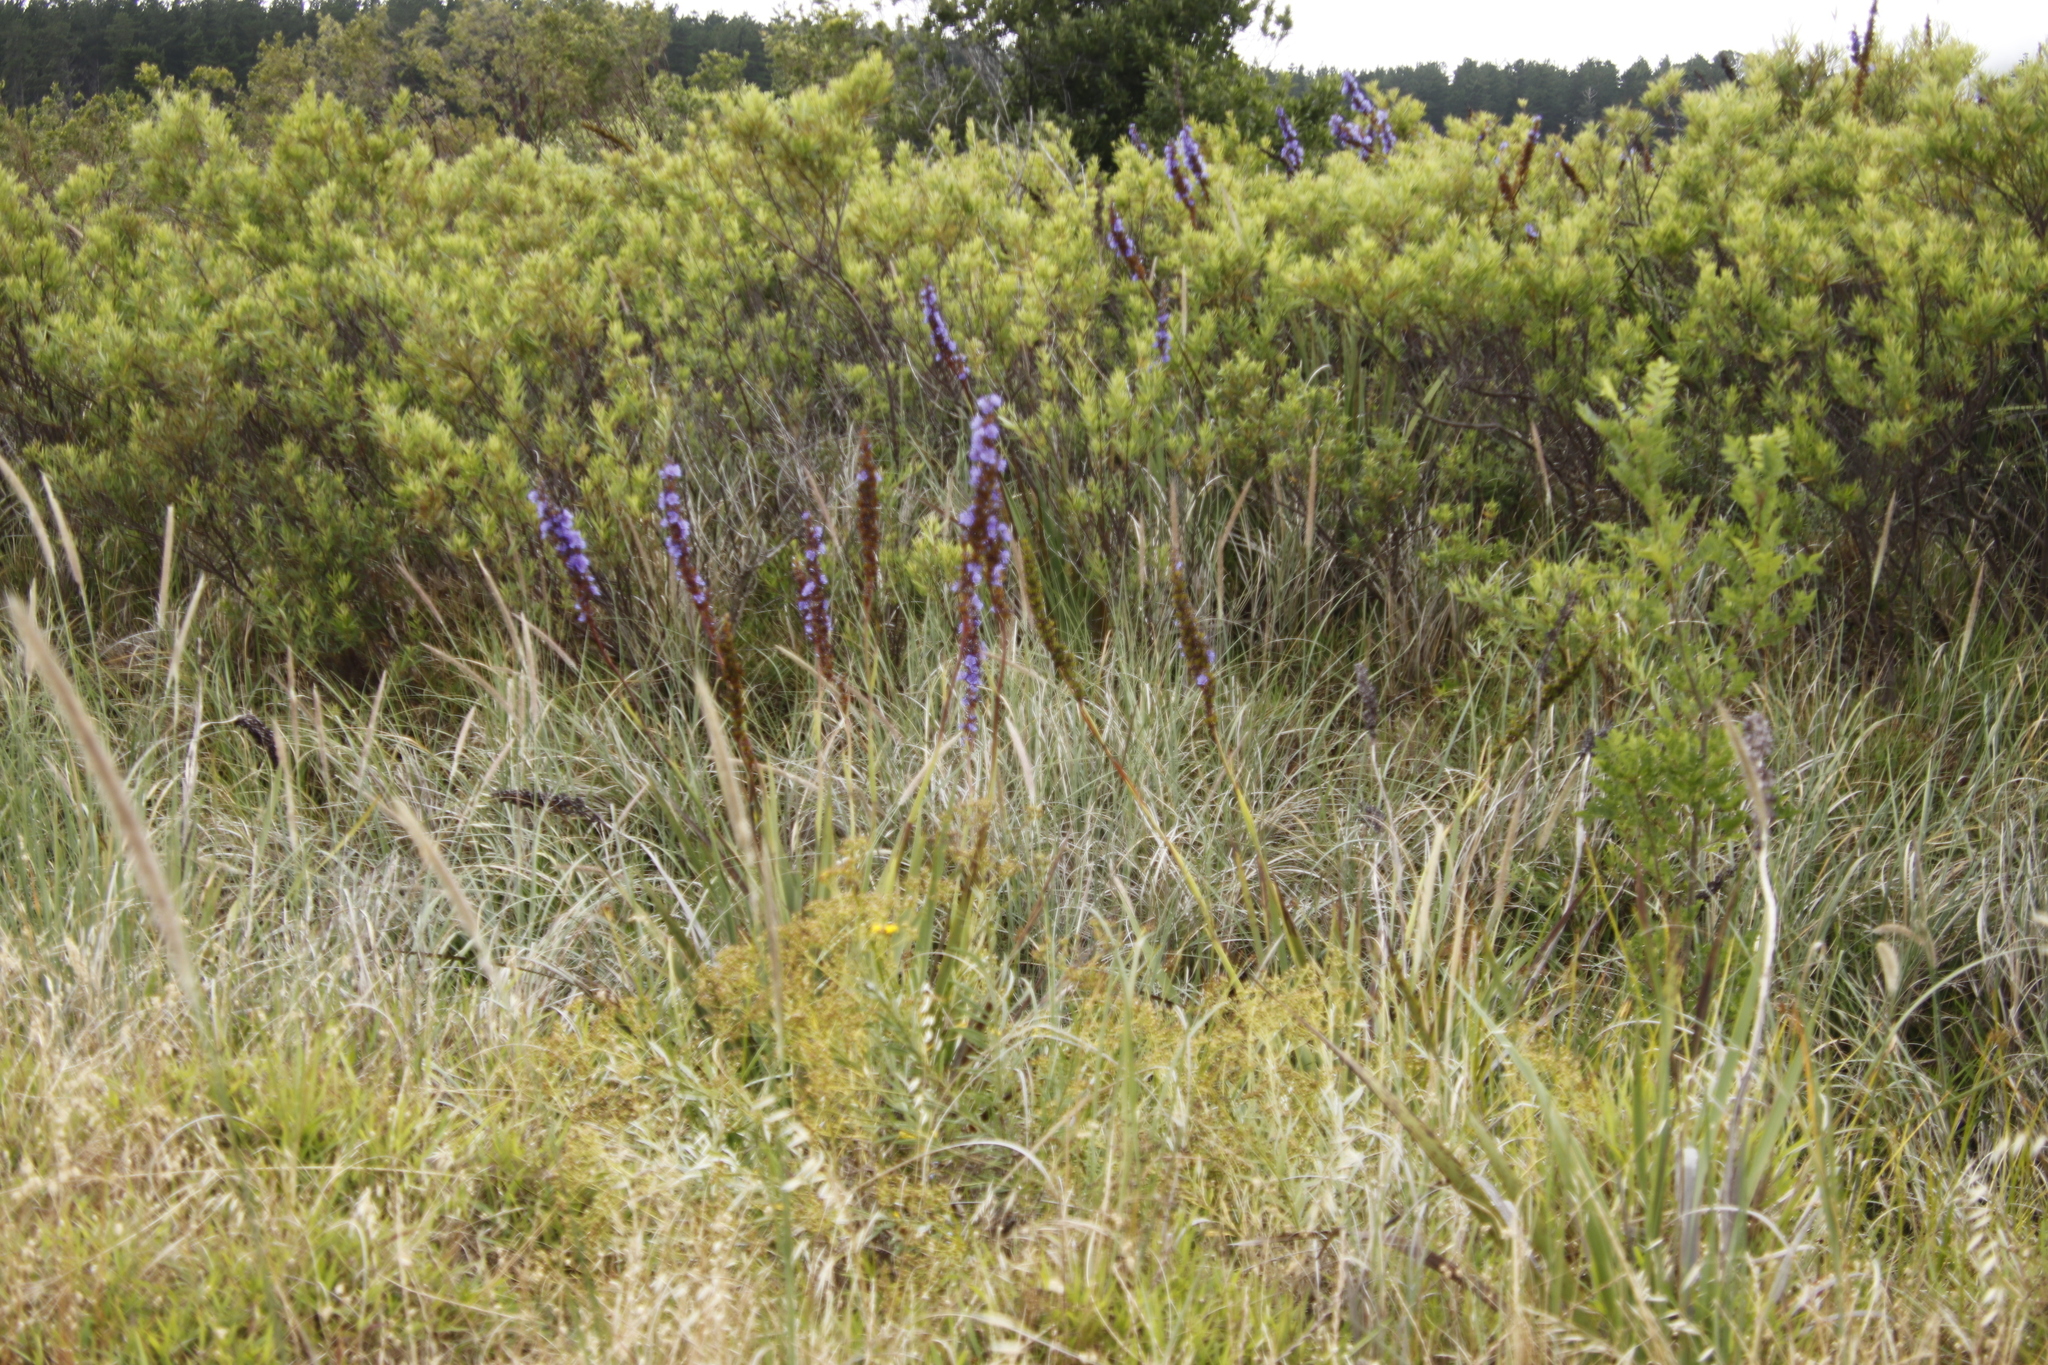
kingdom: Plantae
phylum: Tracheophyta
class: Liliopsida
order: Asparagales
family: Iridaceae
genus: Aristea
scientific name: Aristea capitata
